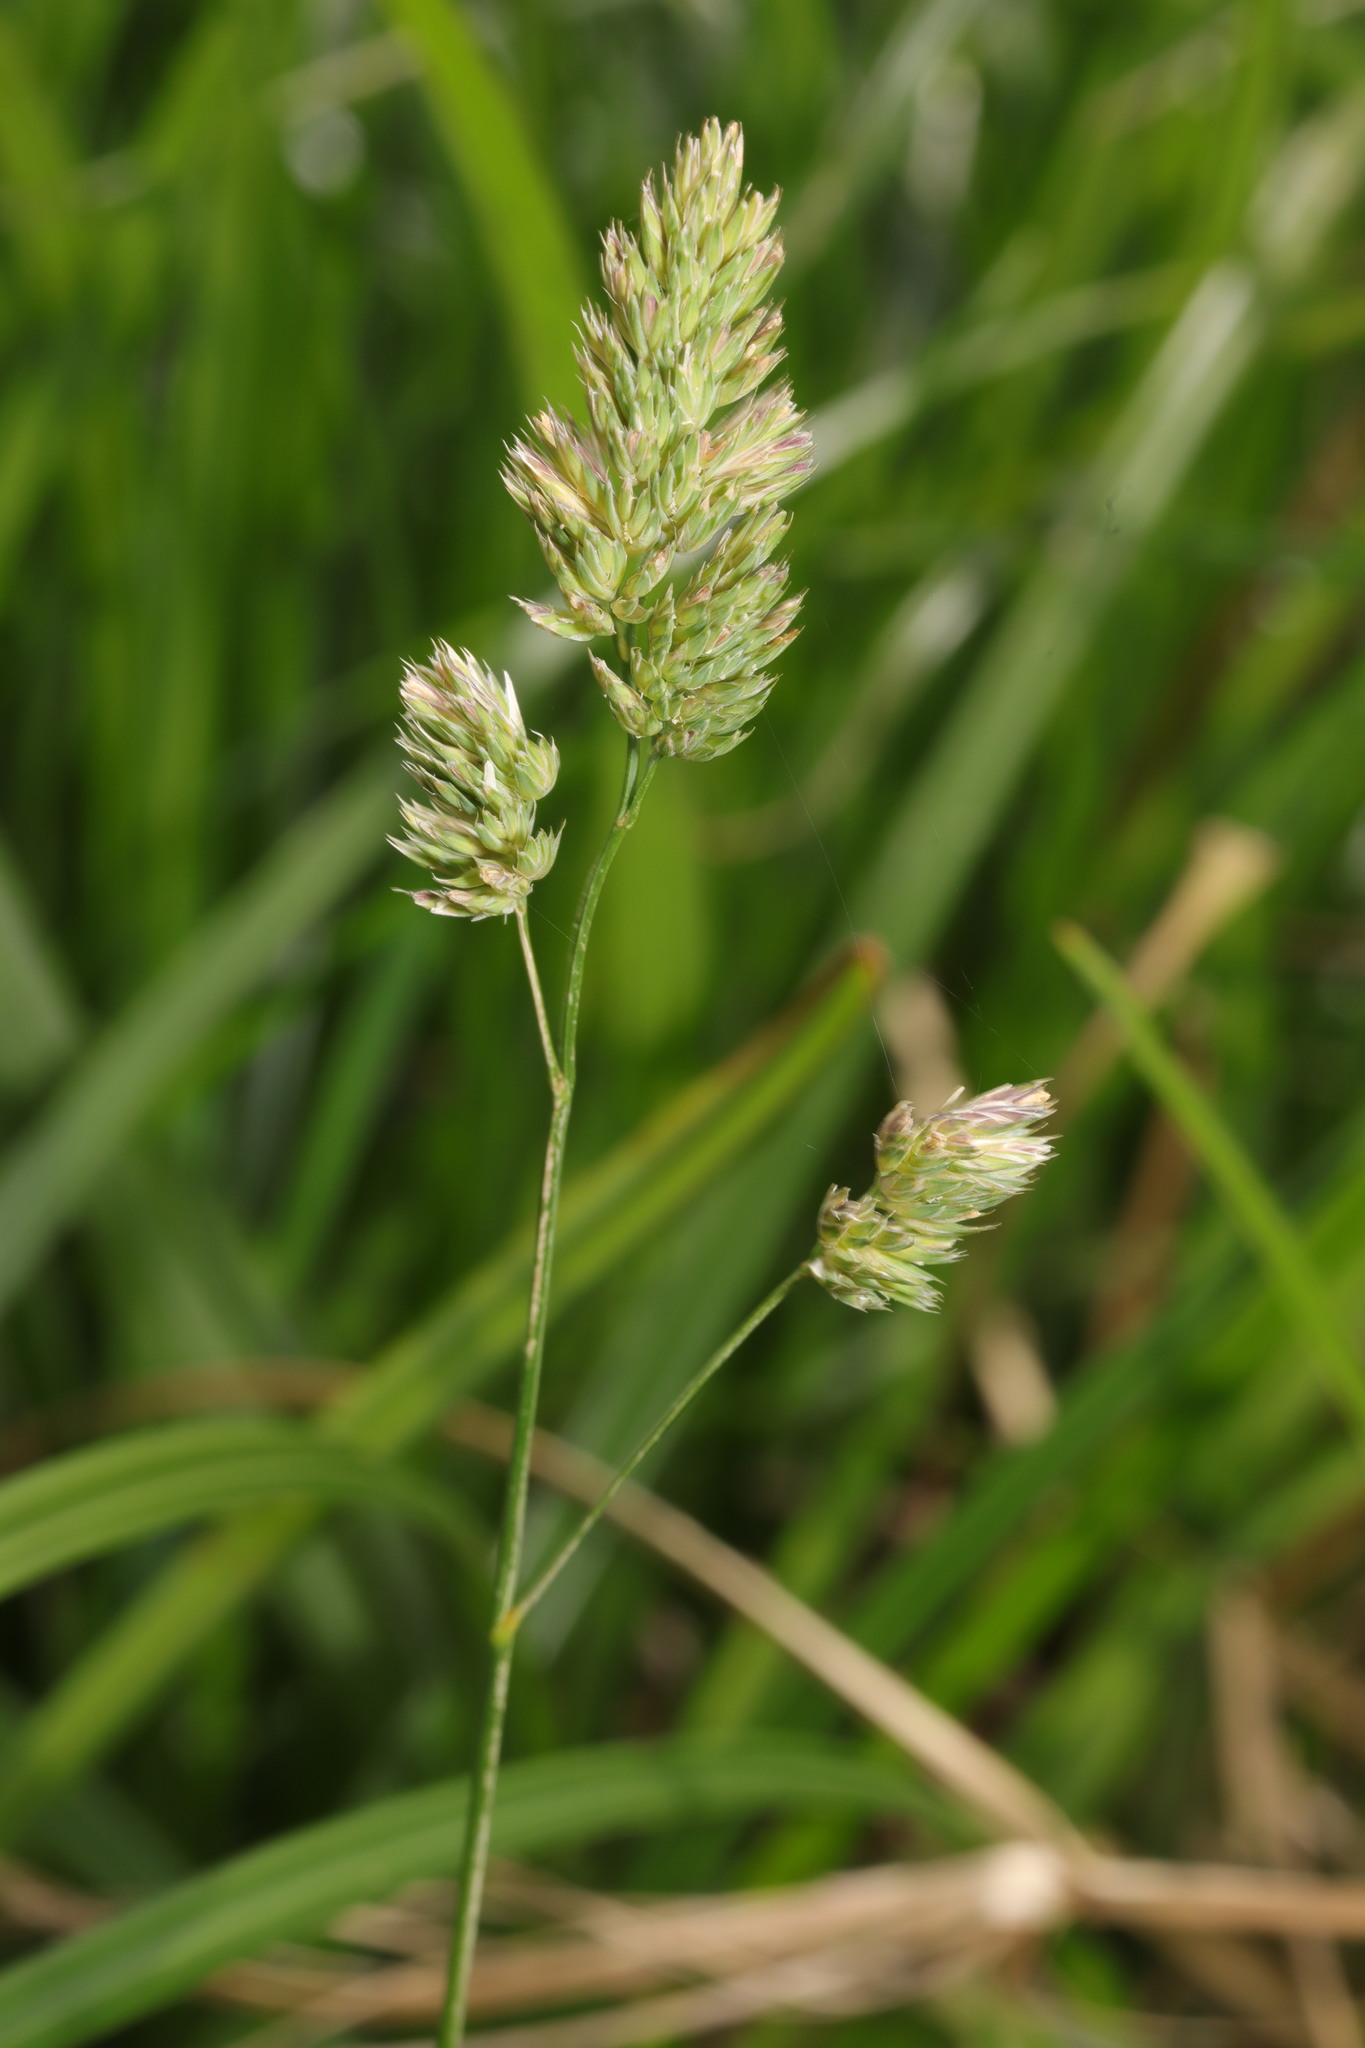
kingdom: Plantae
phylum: Tracheophyta
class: Liliopsida
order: Poales
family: Poaceae
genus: Dactylis
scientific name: Dactylis glomerata
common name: Orchardgrass
